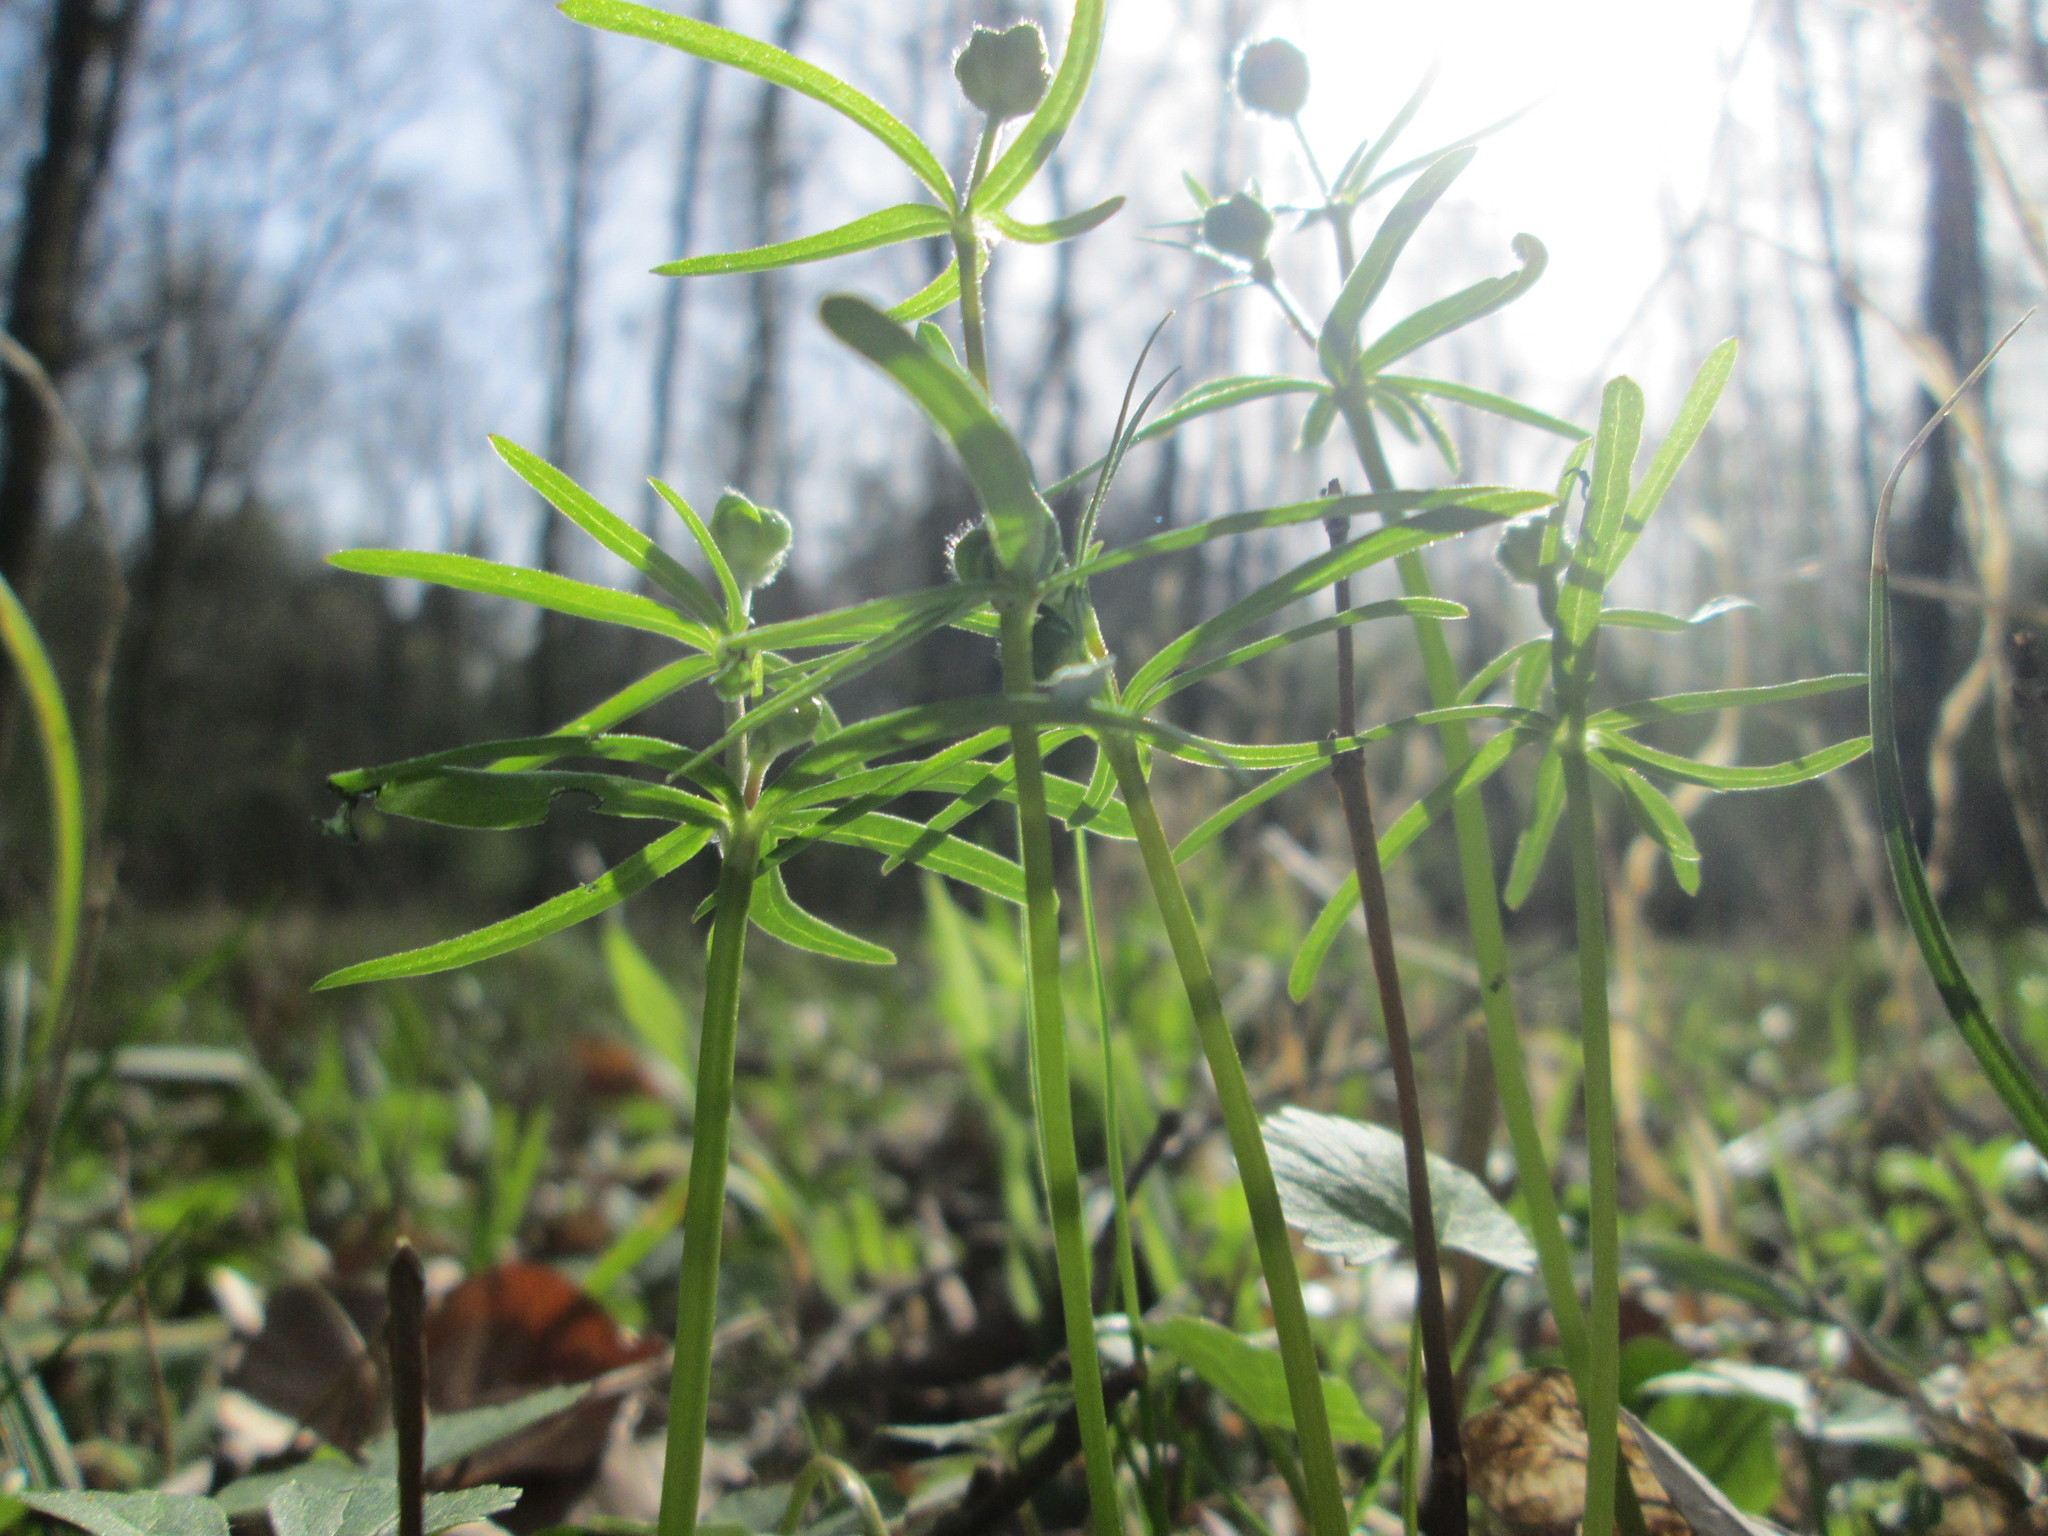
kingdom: Plantae
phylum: Tracheophyta
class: Magnoliopsida
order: Ranunculales
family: Ranunculaceae
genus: Ranunculus
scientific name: Ranunculus auricomus
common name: Goldilocks buttercup
